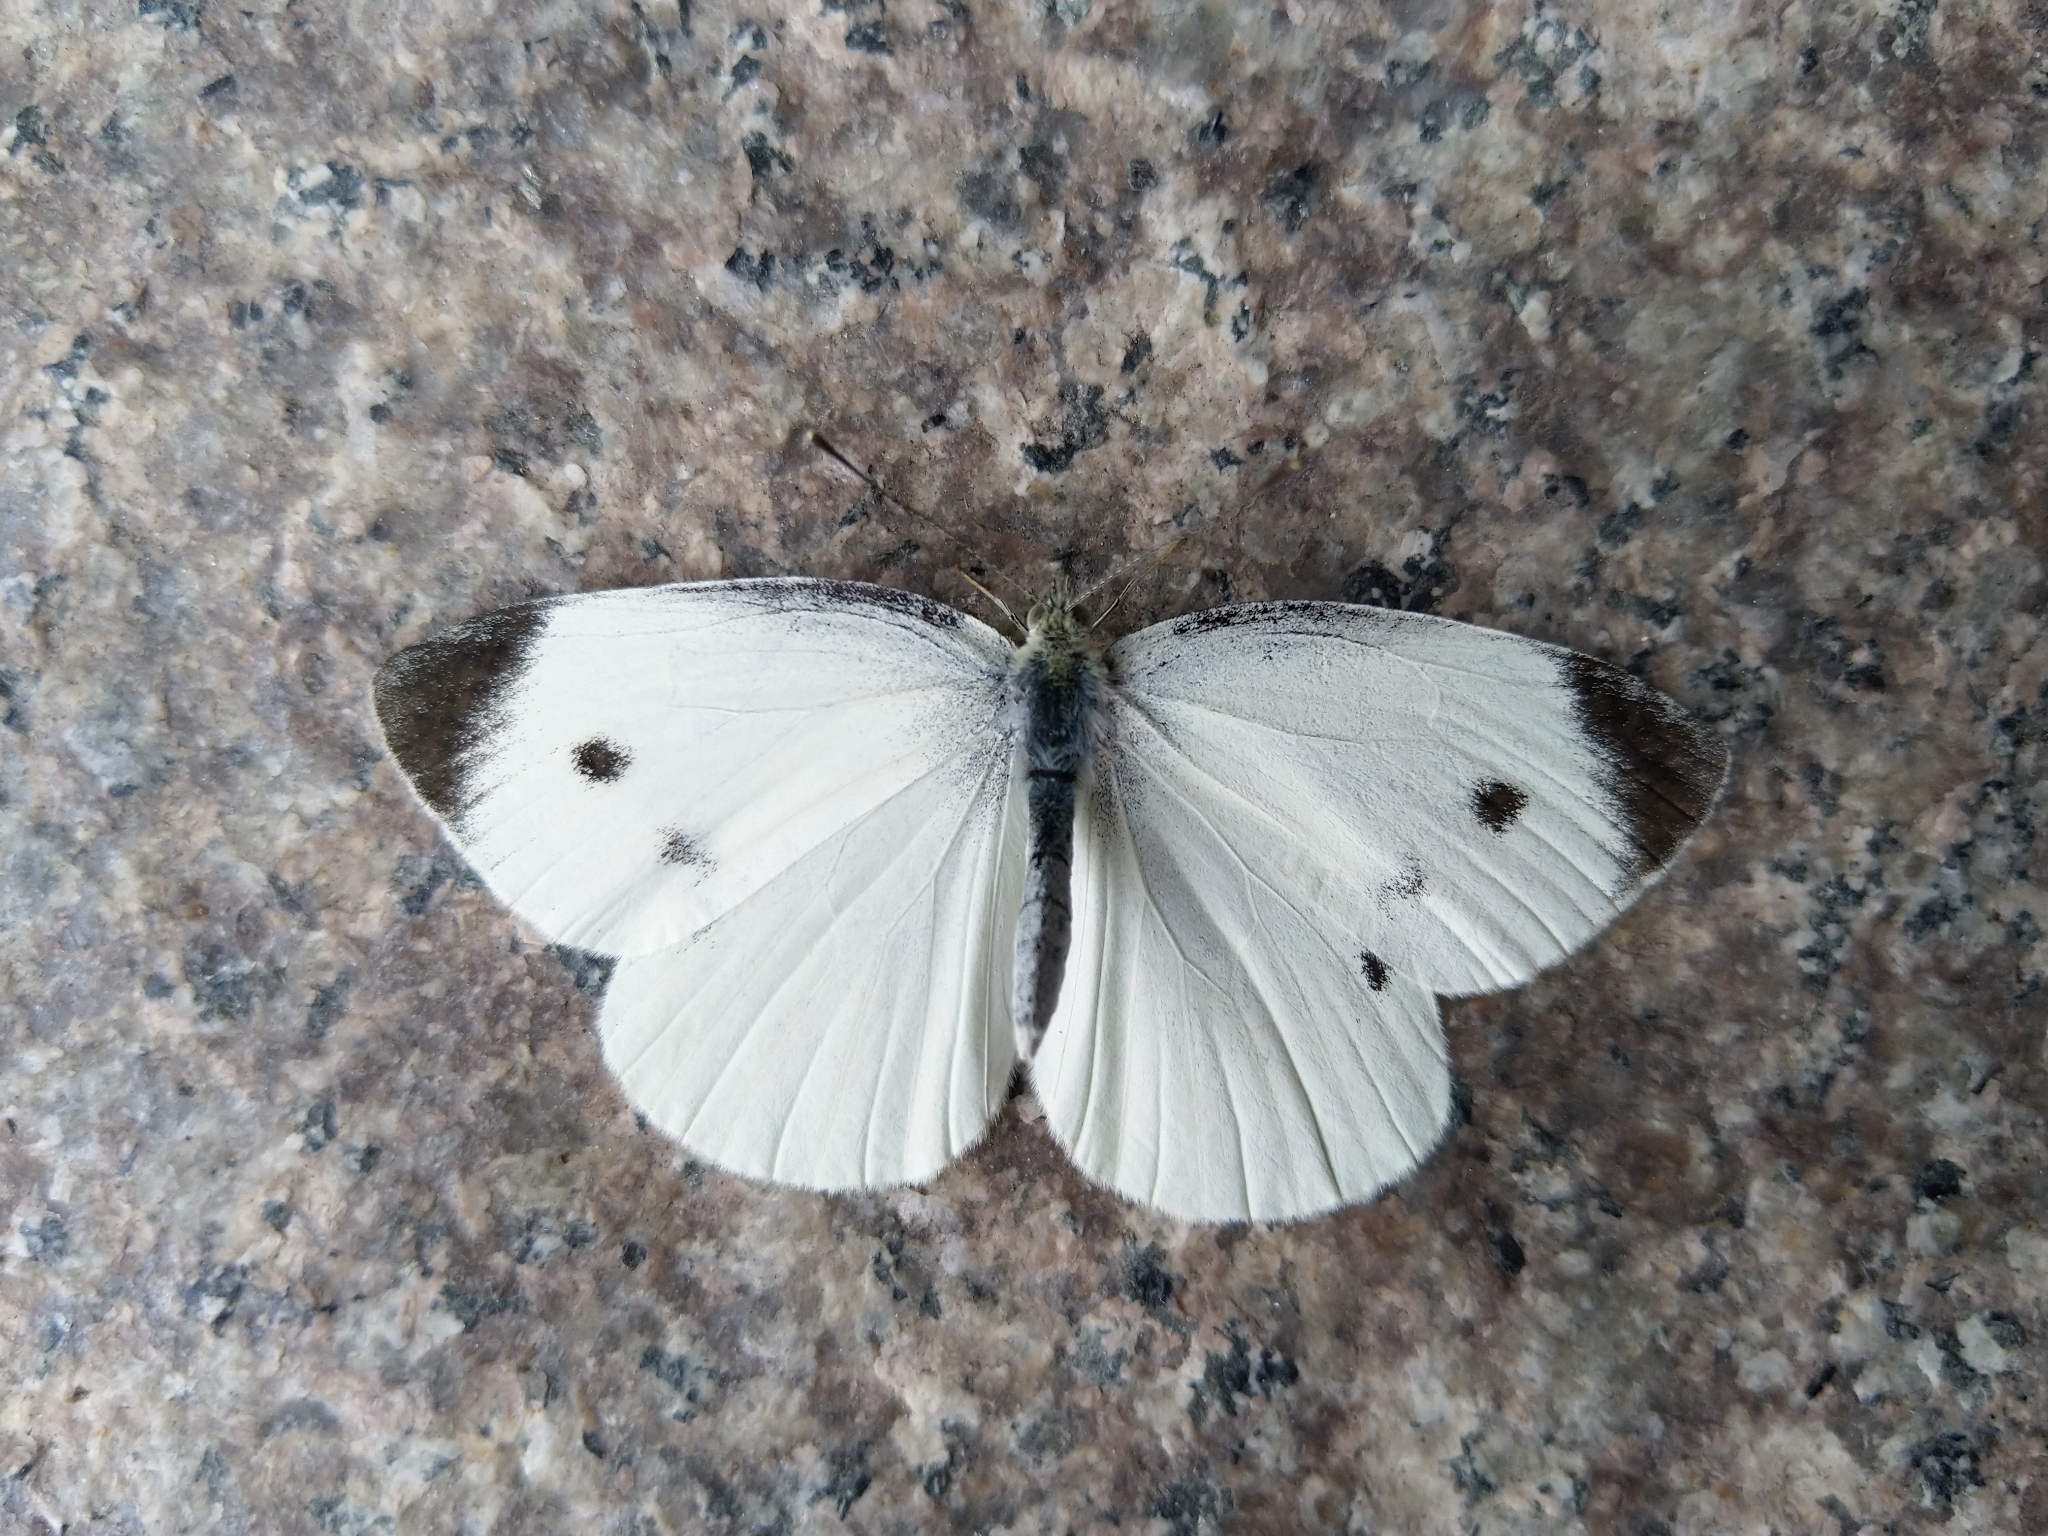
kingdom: Animalia
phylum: Arthropoda
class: Insecta
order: Lepidoptera
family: Pieridae
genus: Pieris
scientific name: Pieris rapae
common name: Small white
